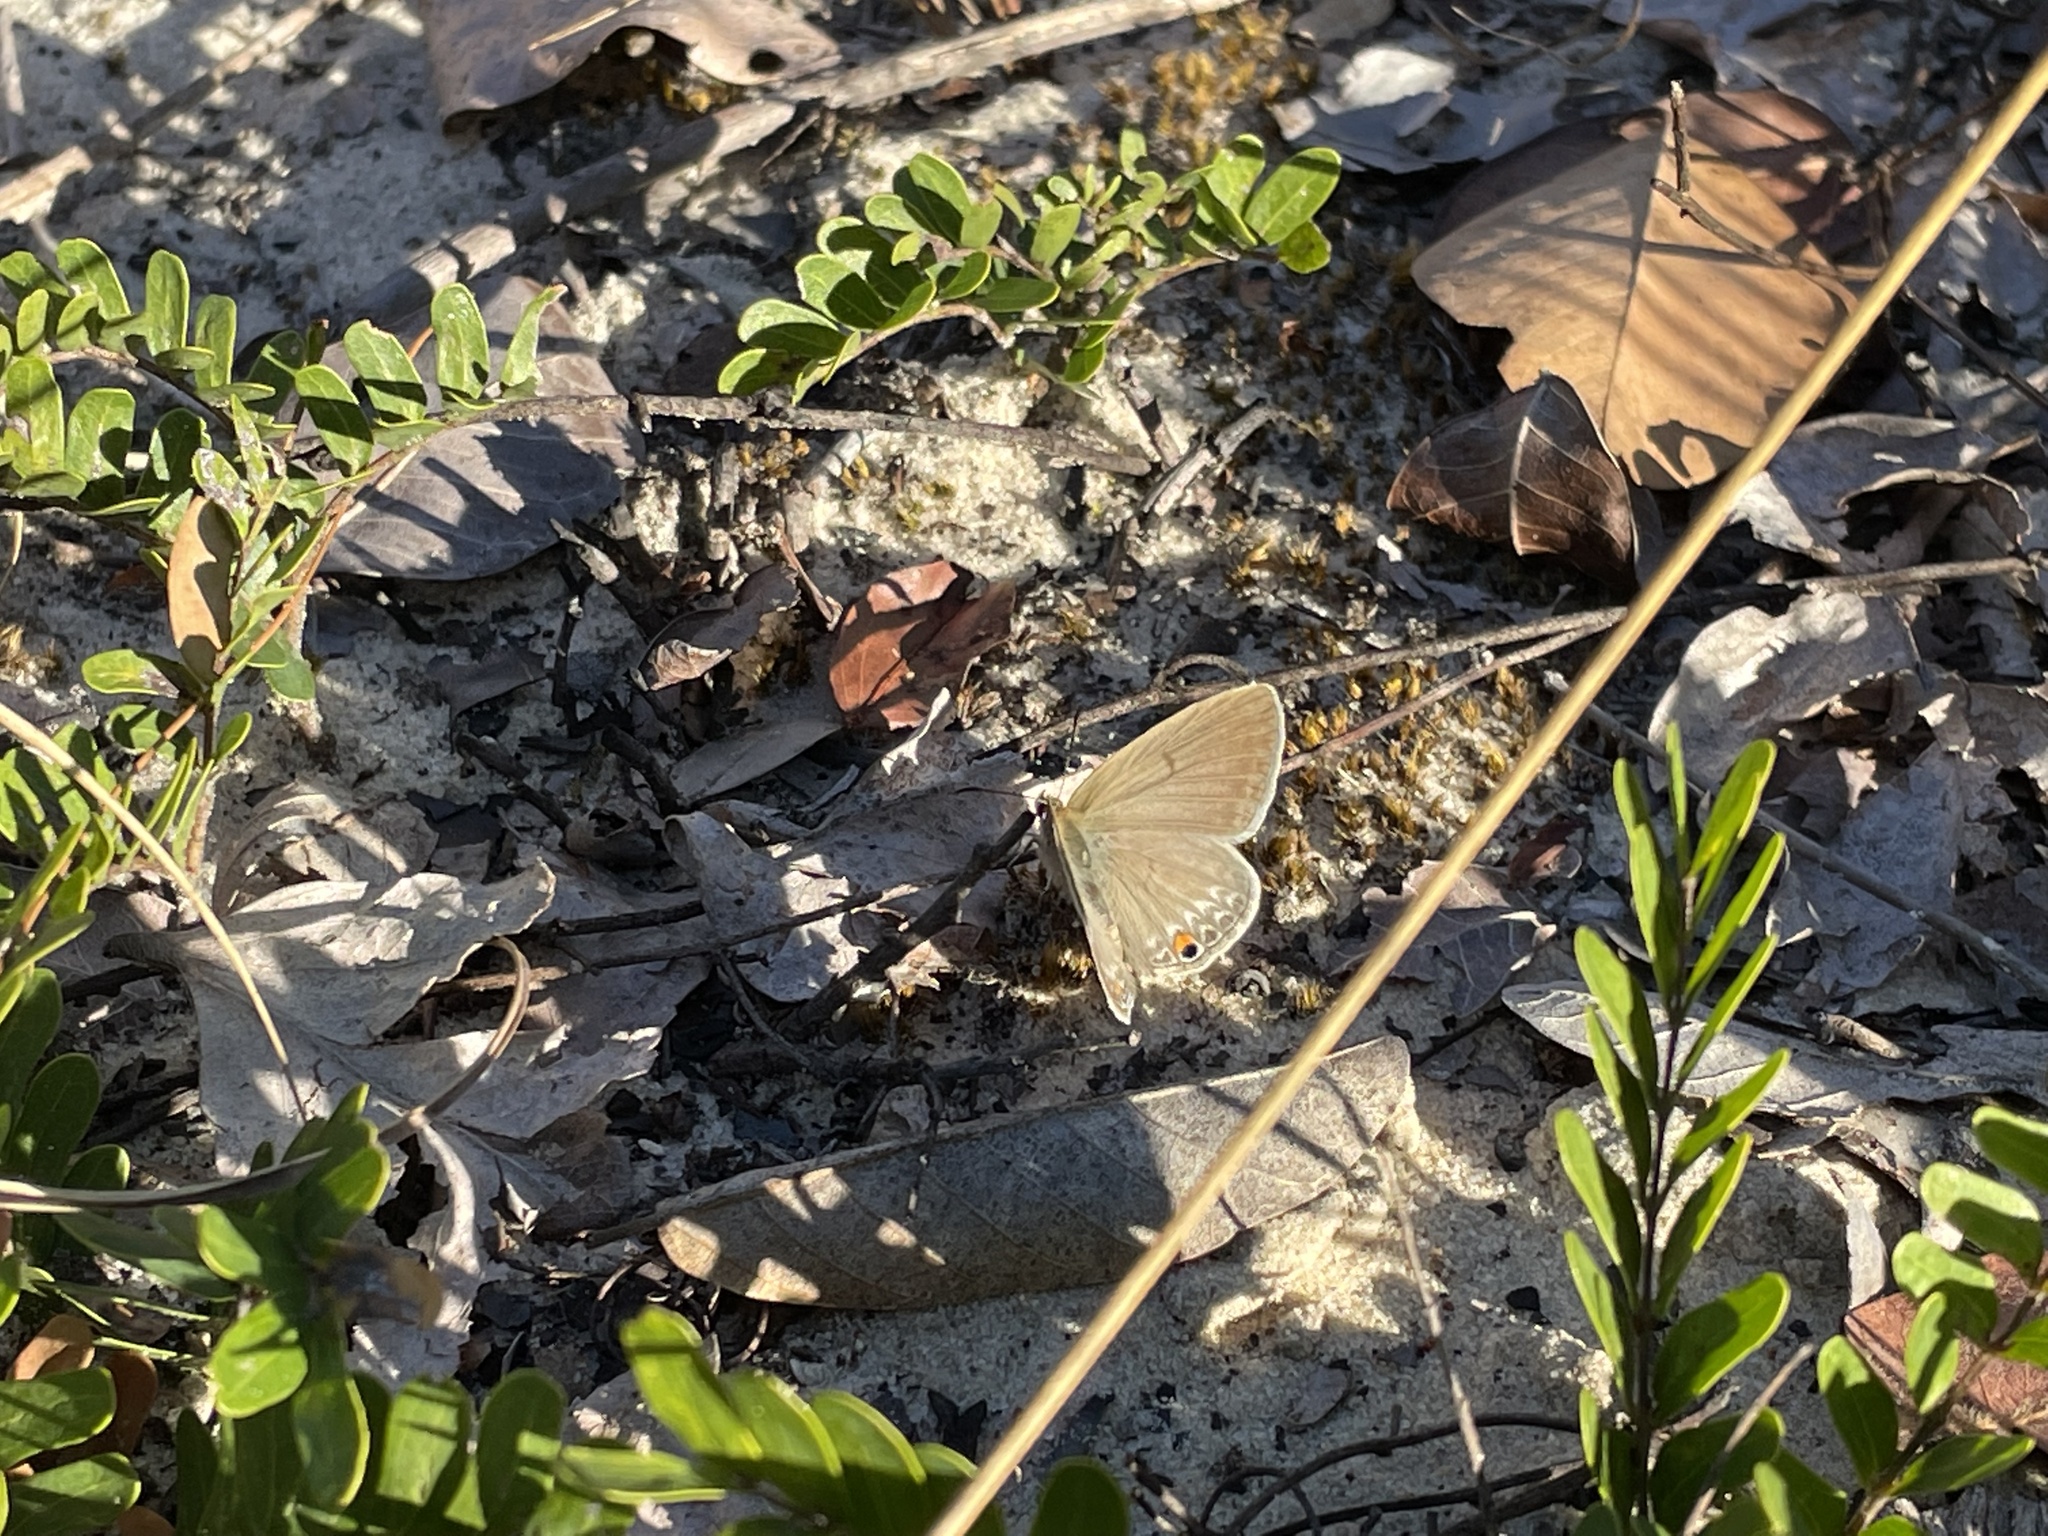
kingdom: Animalia
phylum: Arthropoda
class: Insecta
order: Lepidoptera
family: Lycaenidae
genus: Euchrysops
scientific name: Euchrysops malathana
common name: Common smoky blue
